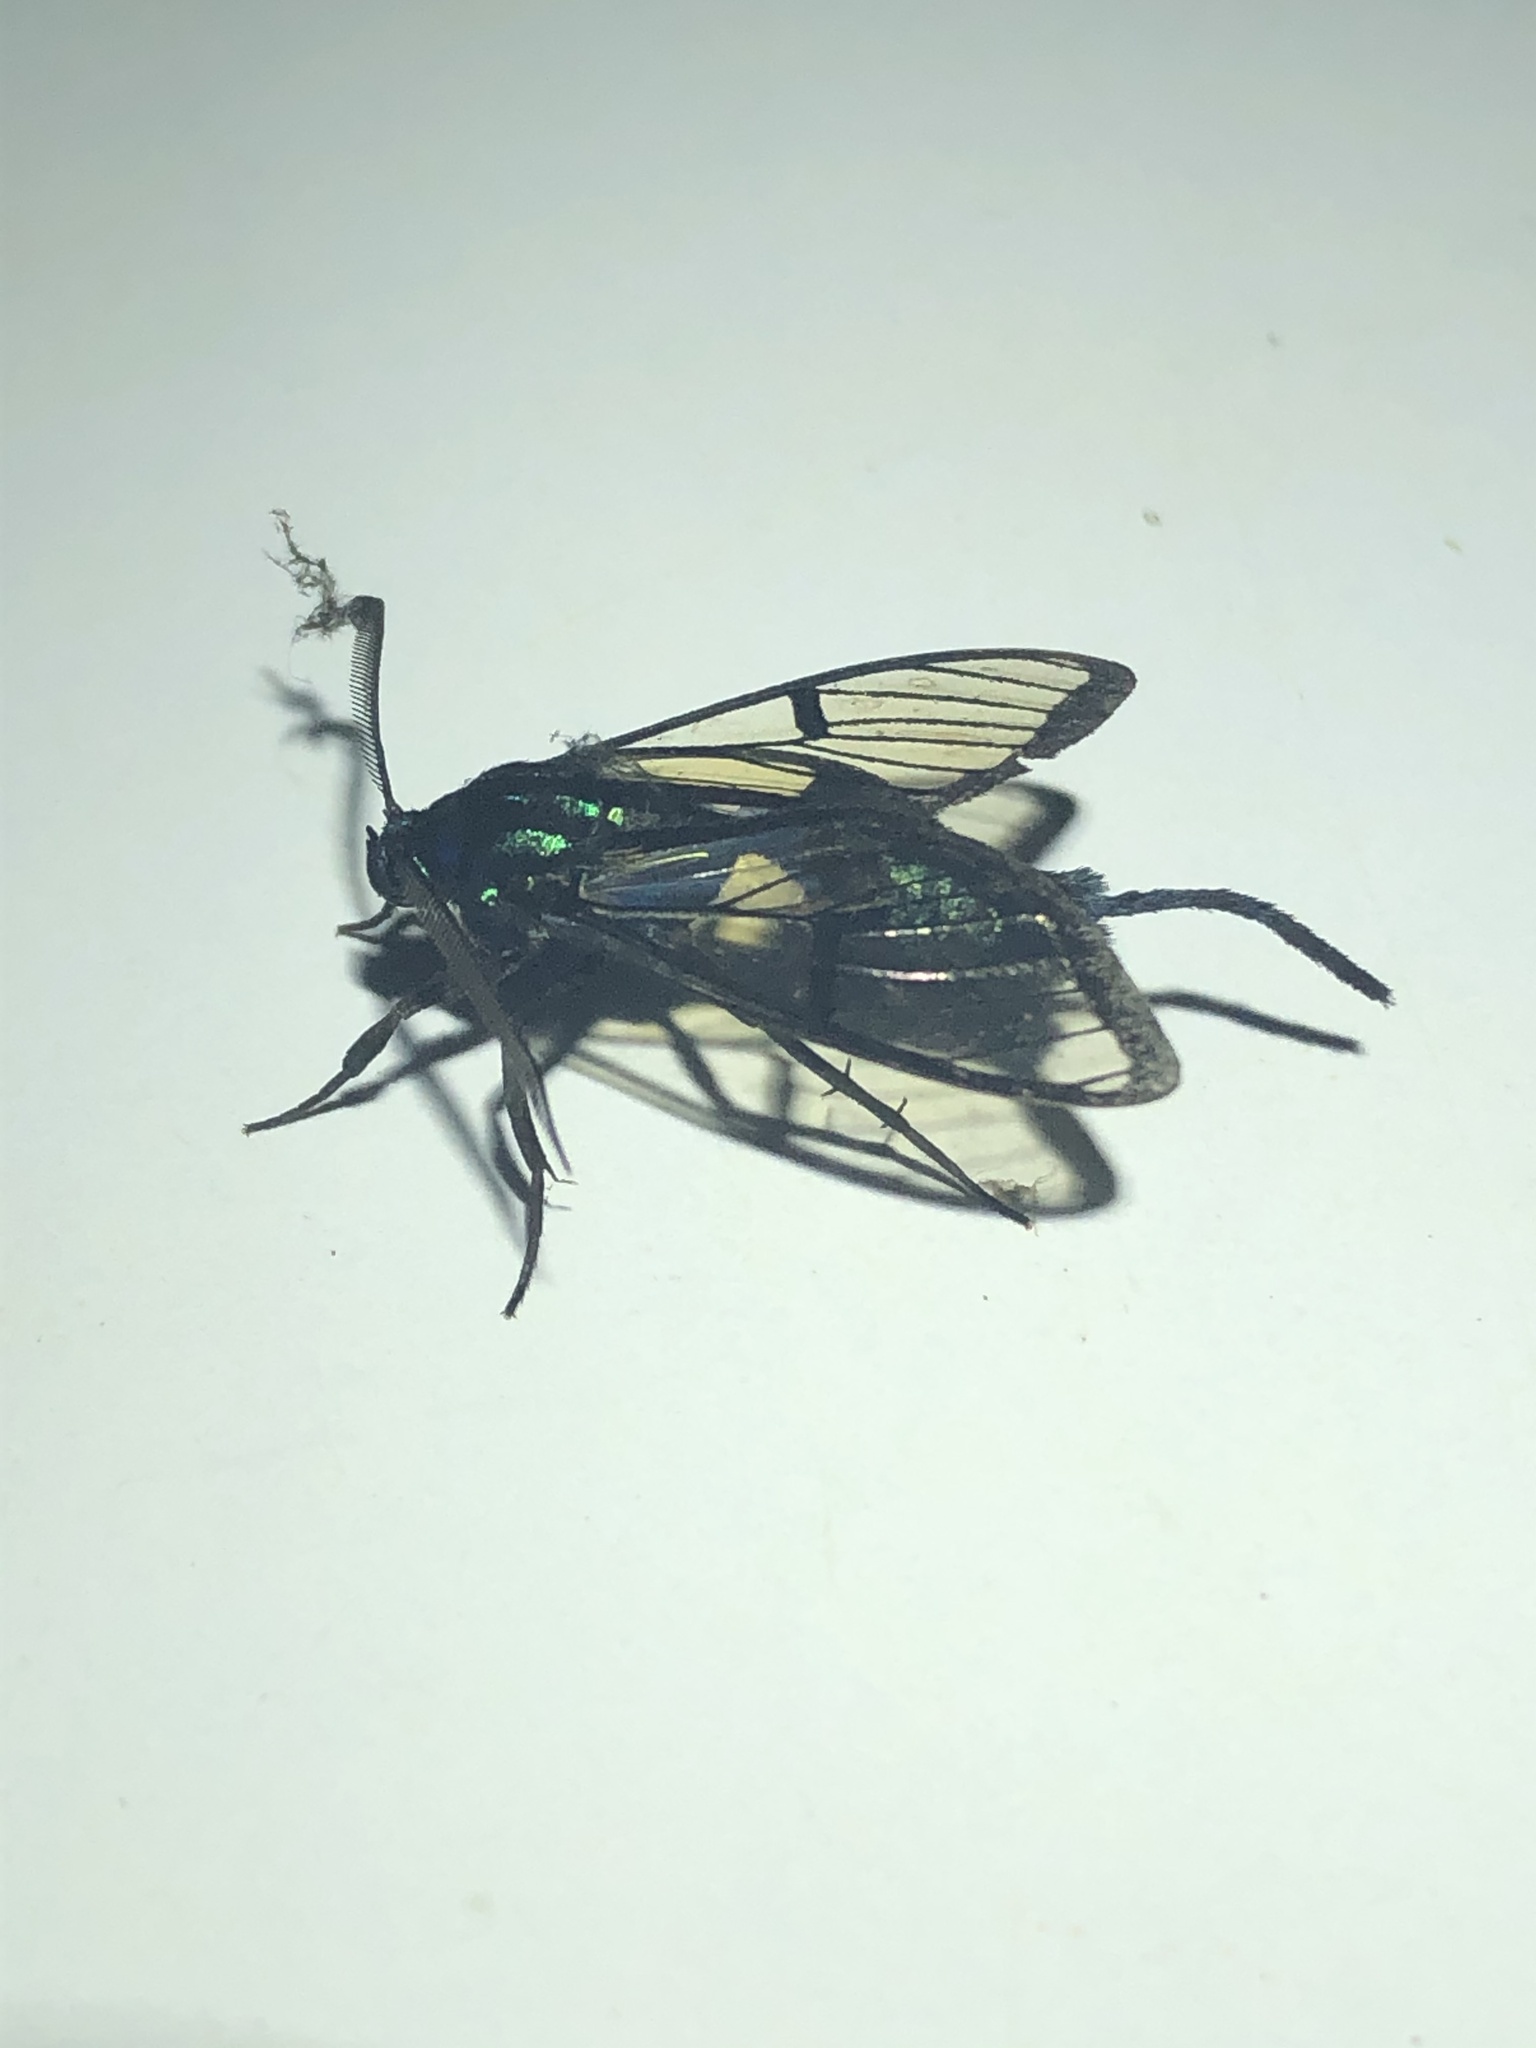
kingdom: Animalia
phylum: Arthropoda
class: Insecta
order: Lepidoptera
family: Erebidae
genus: Trichura
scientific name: Trichura latifascia
